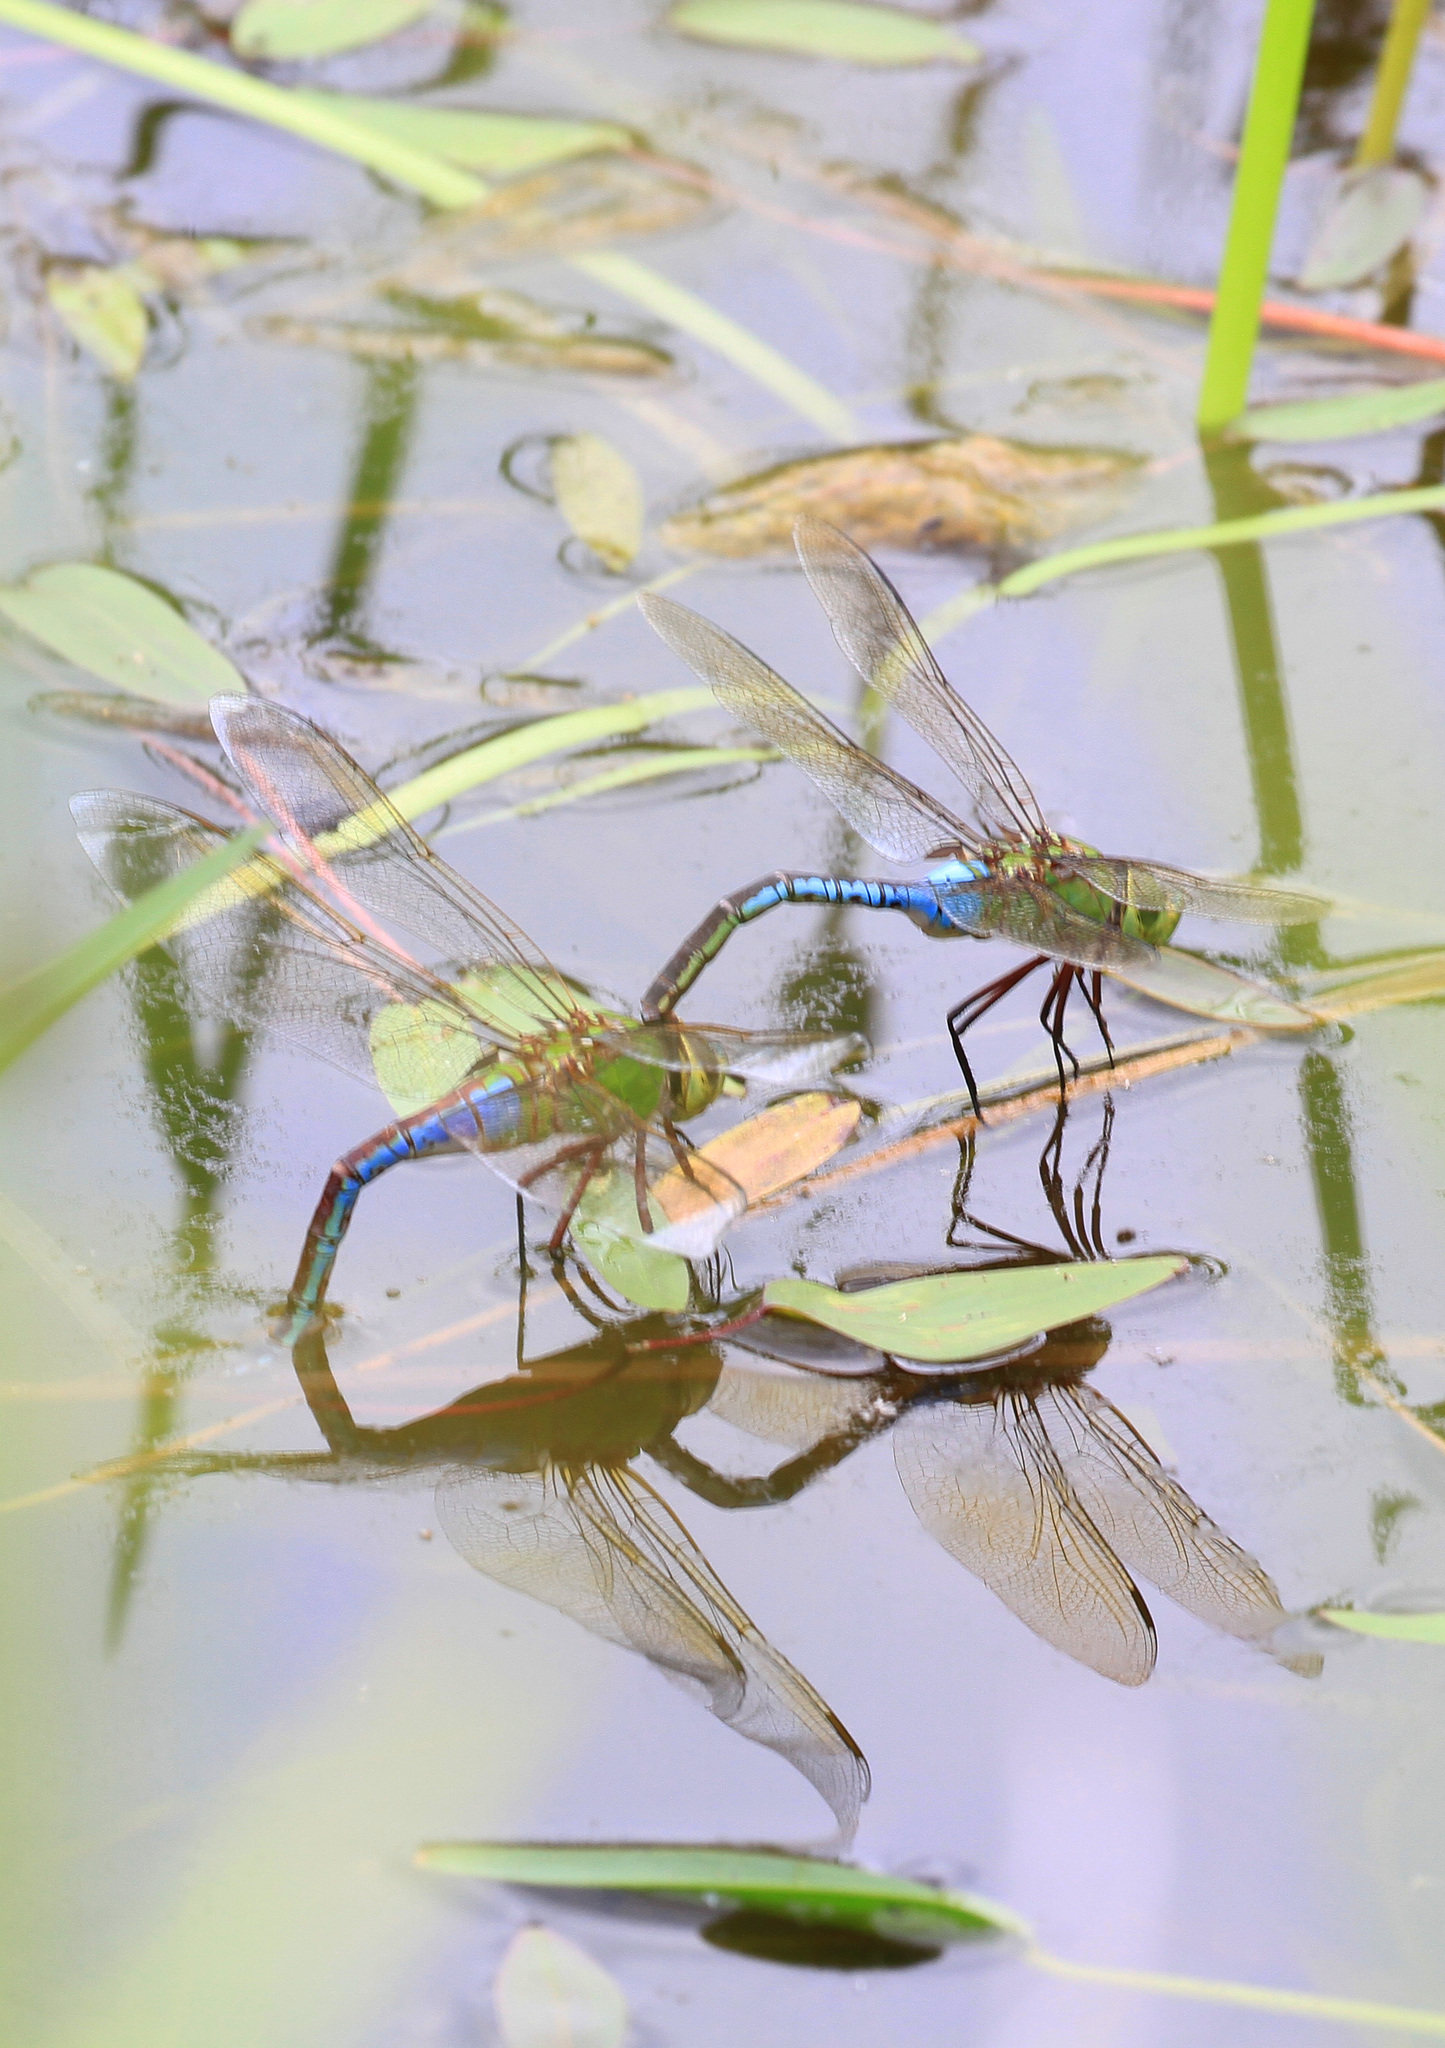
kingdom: Animalia
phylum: Arthropoda
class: Insecta
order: Odonata
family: Aeshnidae
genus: Anax
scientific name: Anax junius
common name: Common green darner
